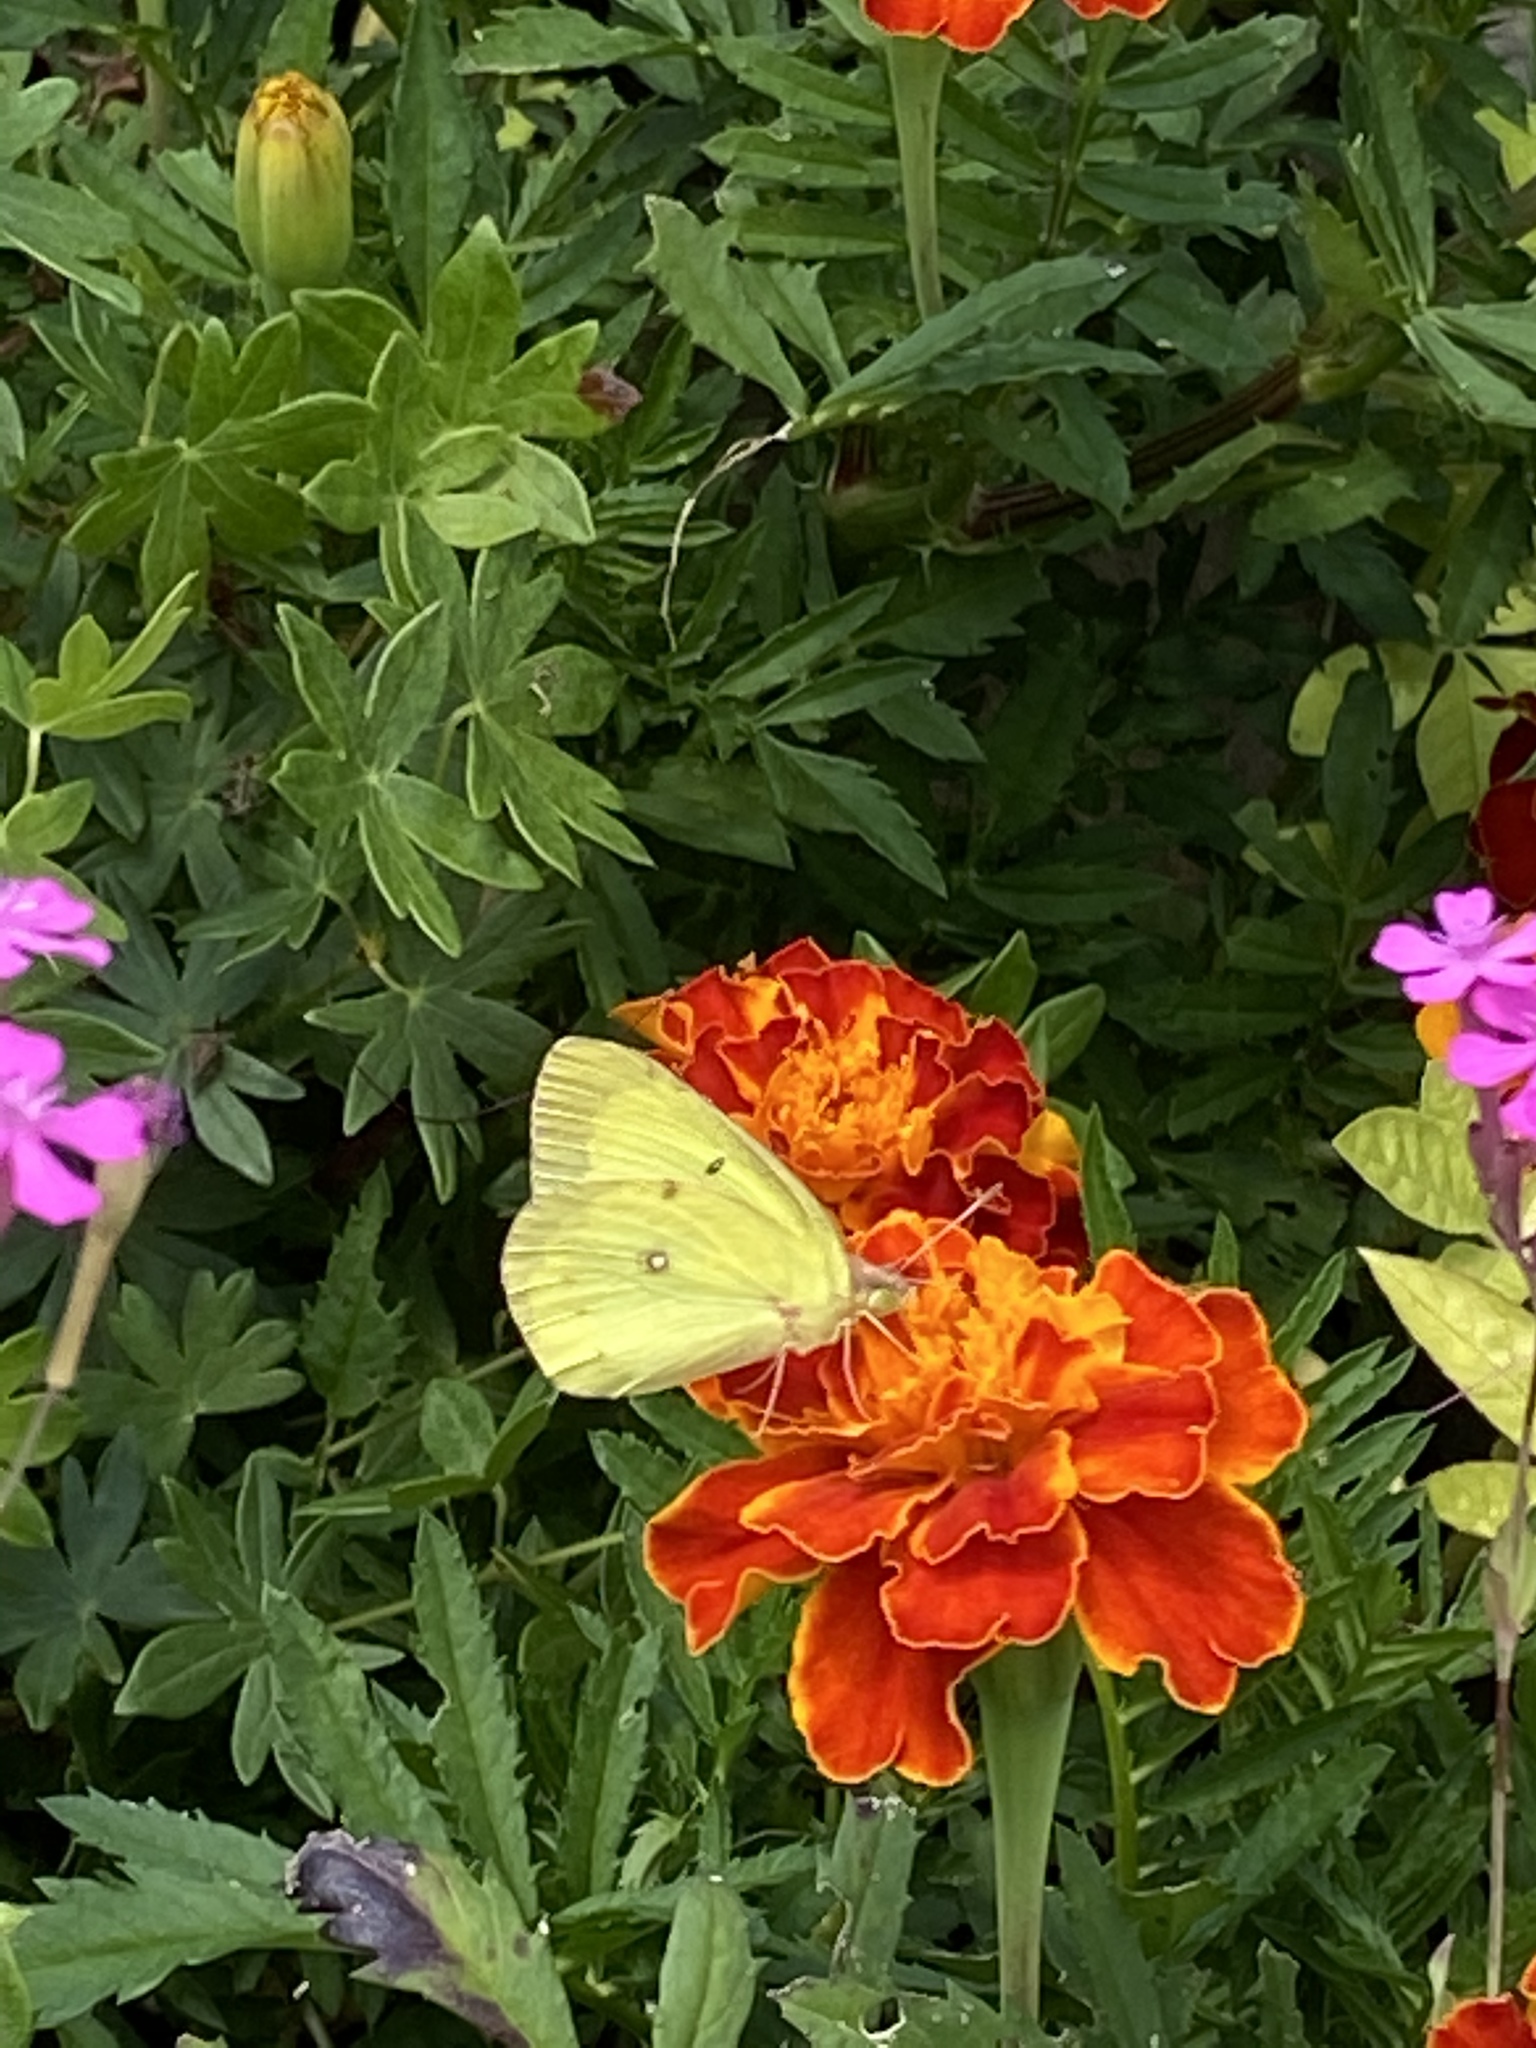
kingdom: Animalia
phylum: Arthropoda
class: Insecta
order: Lepidoptera
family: Pieridae
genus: Colias
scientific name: Colias philodice
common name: Clouded sulphur
